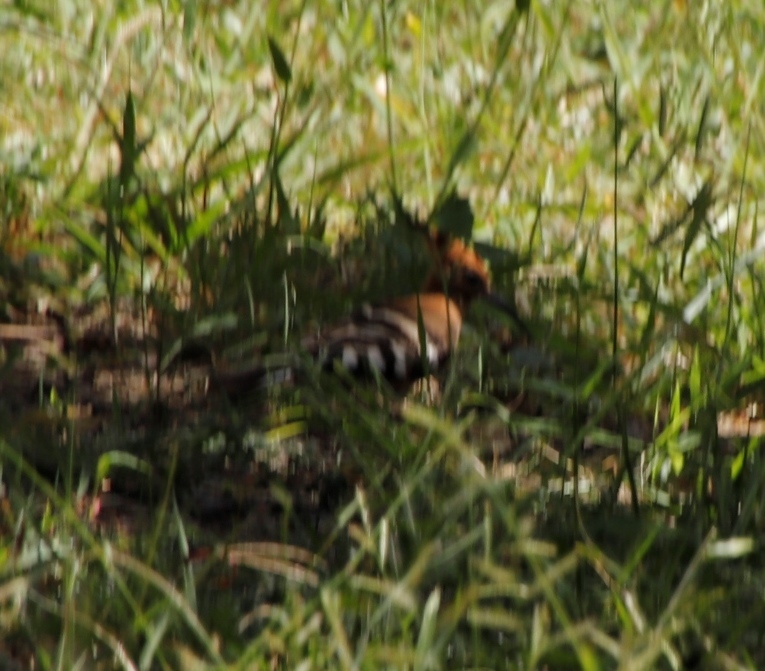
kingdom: Animalia
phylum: Chordata
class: Aves
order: Bucerotiformes
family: Upupidae
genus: Upupa
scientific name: Upupa africana
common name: African hoopoe
